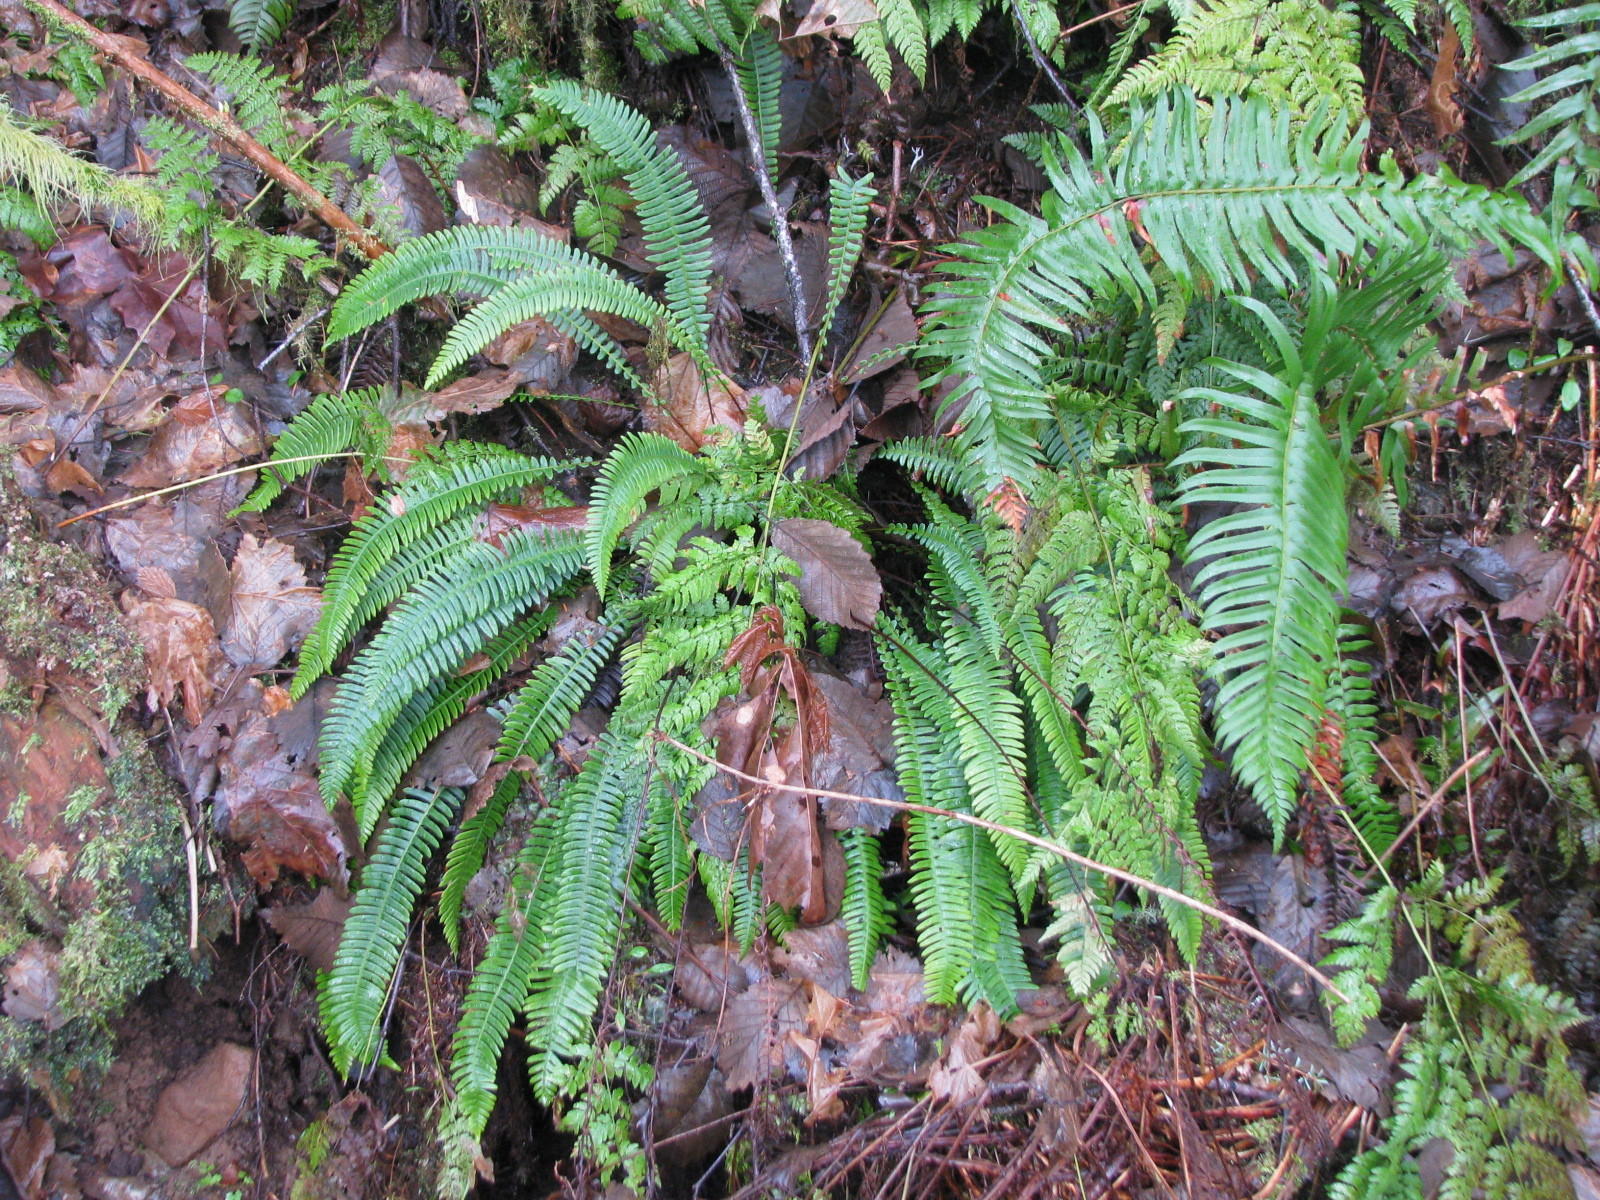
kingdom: Plantae
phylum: Tracheophyta
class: Polypodiopsida
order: Polypodiales
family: Blechnaceae
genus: Struthiopteris
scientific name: Struthiopteris spicant
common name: Deer fern
